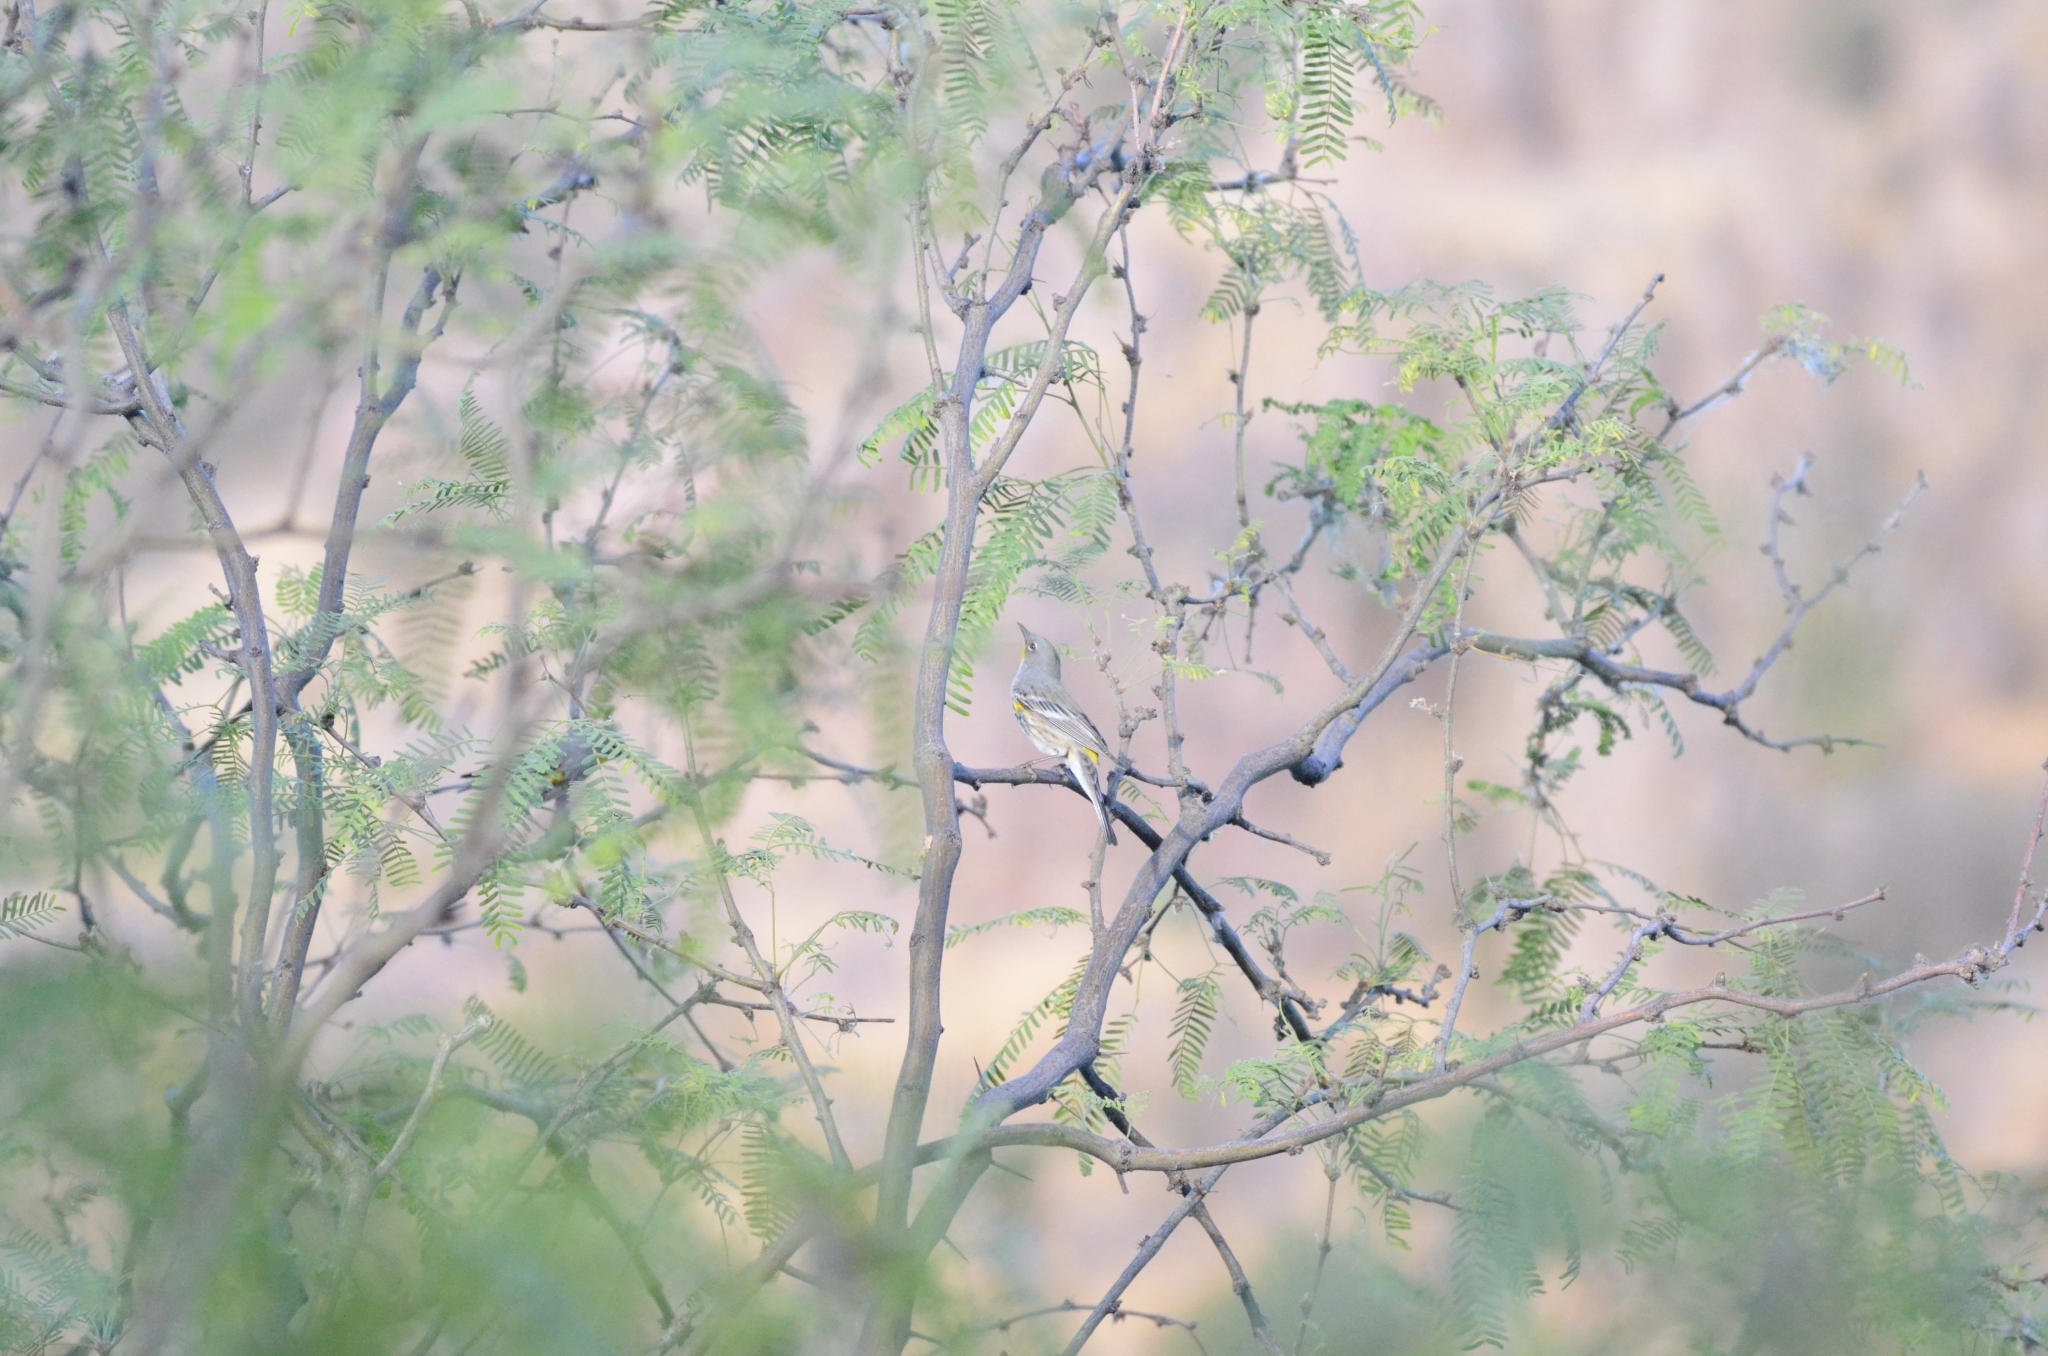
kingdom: Animalia
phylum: Chordata
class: Aves
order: Passeriformes
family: Parulidae
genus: Setophaga
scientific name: Setophaga coronata
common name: Myrtle warbler
